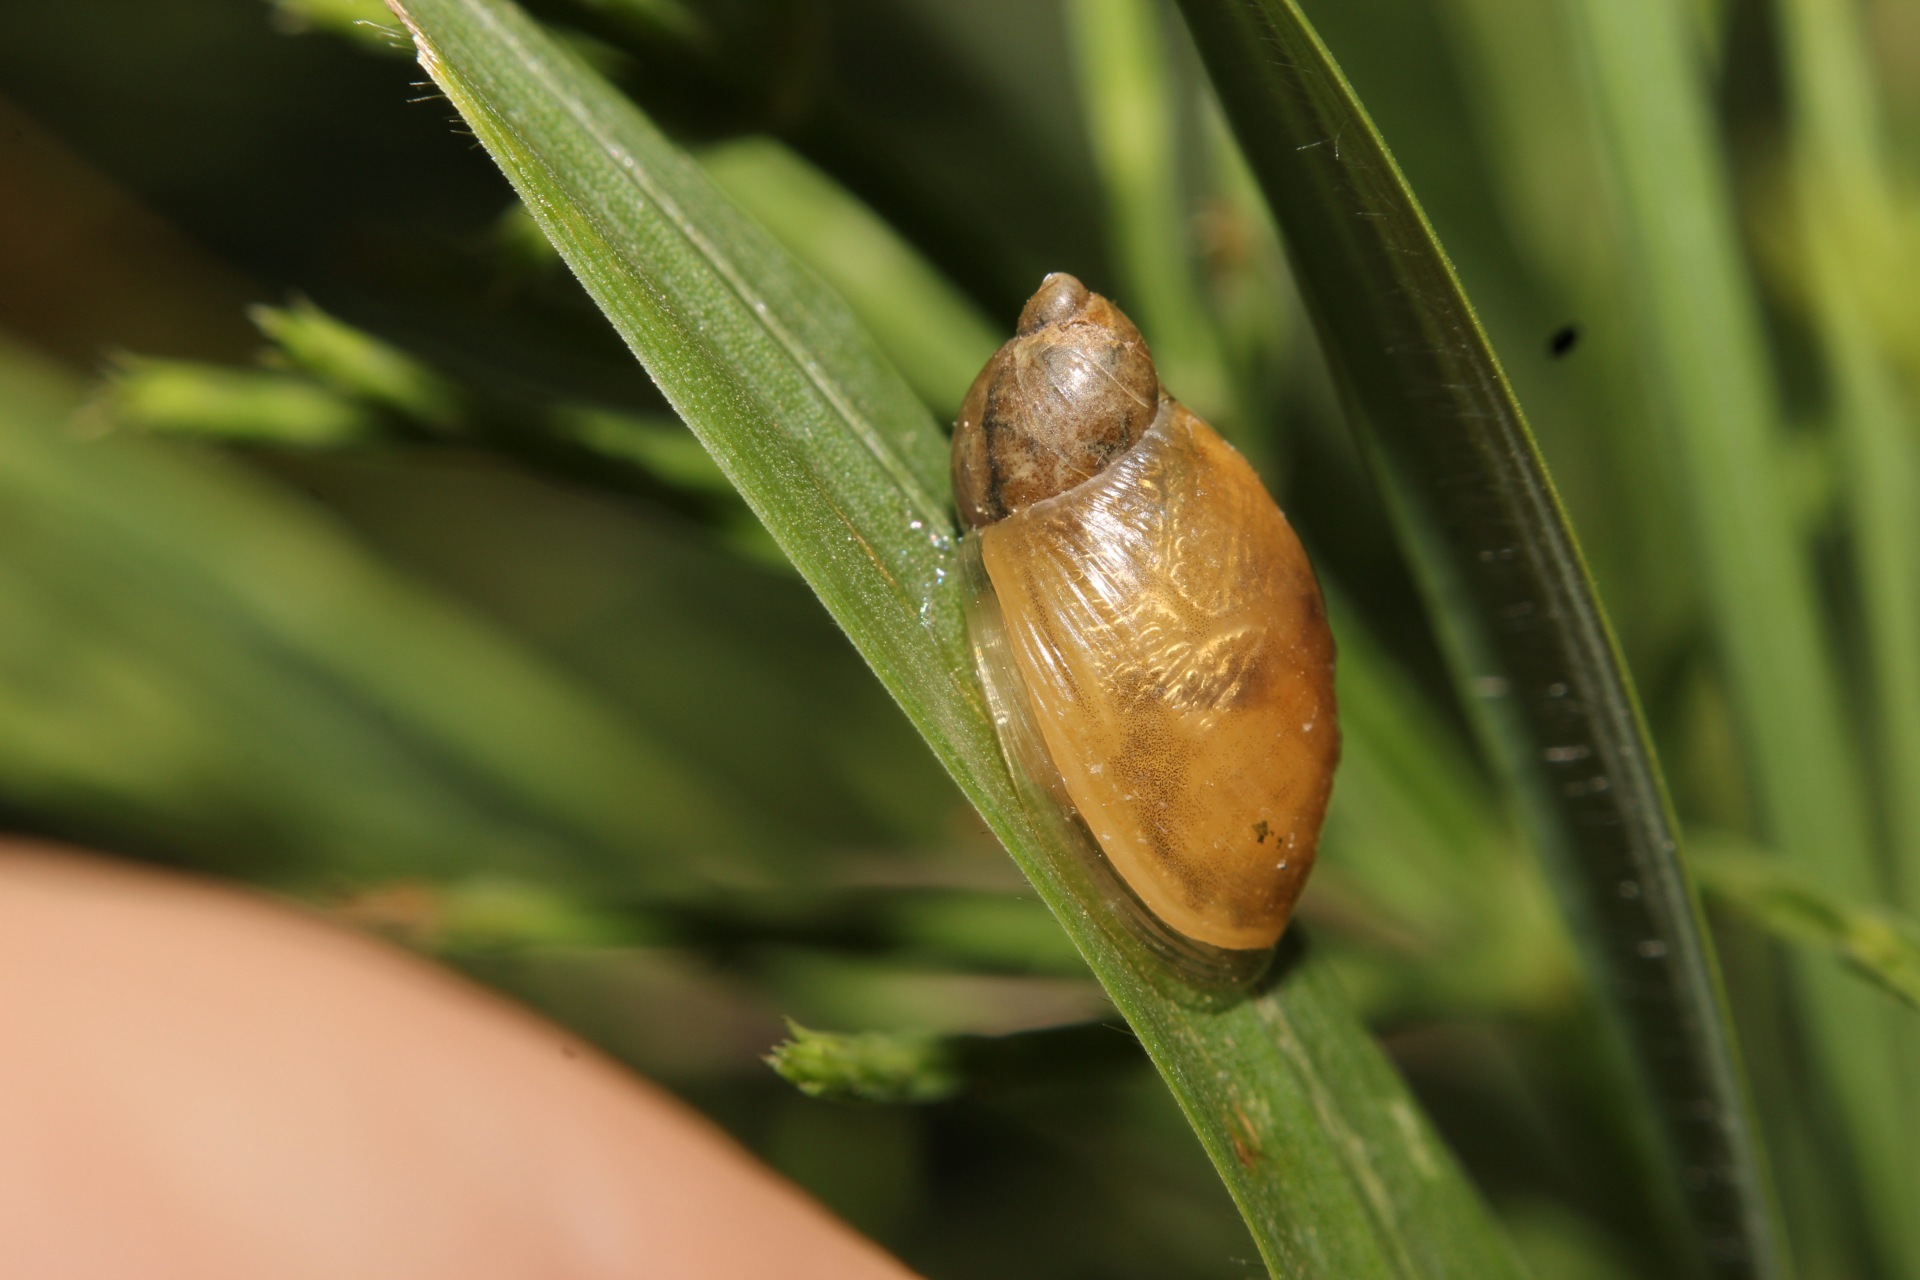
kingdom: Animalia
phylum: Mollusca
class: Gastropoda
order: Stylommatophora
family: Succineidae
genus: Succinea
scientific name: Succinea putris
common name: European ambersnail
